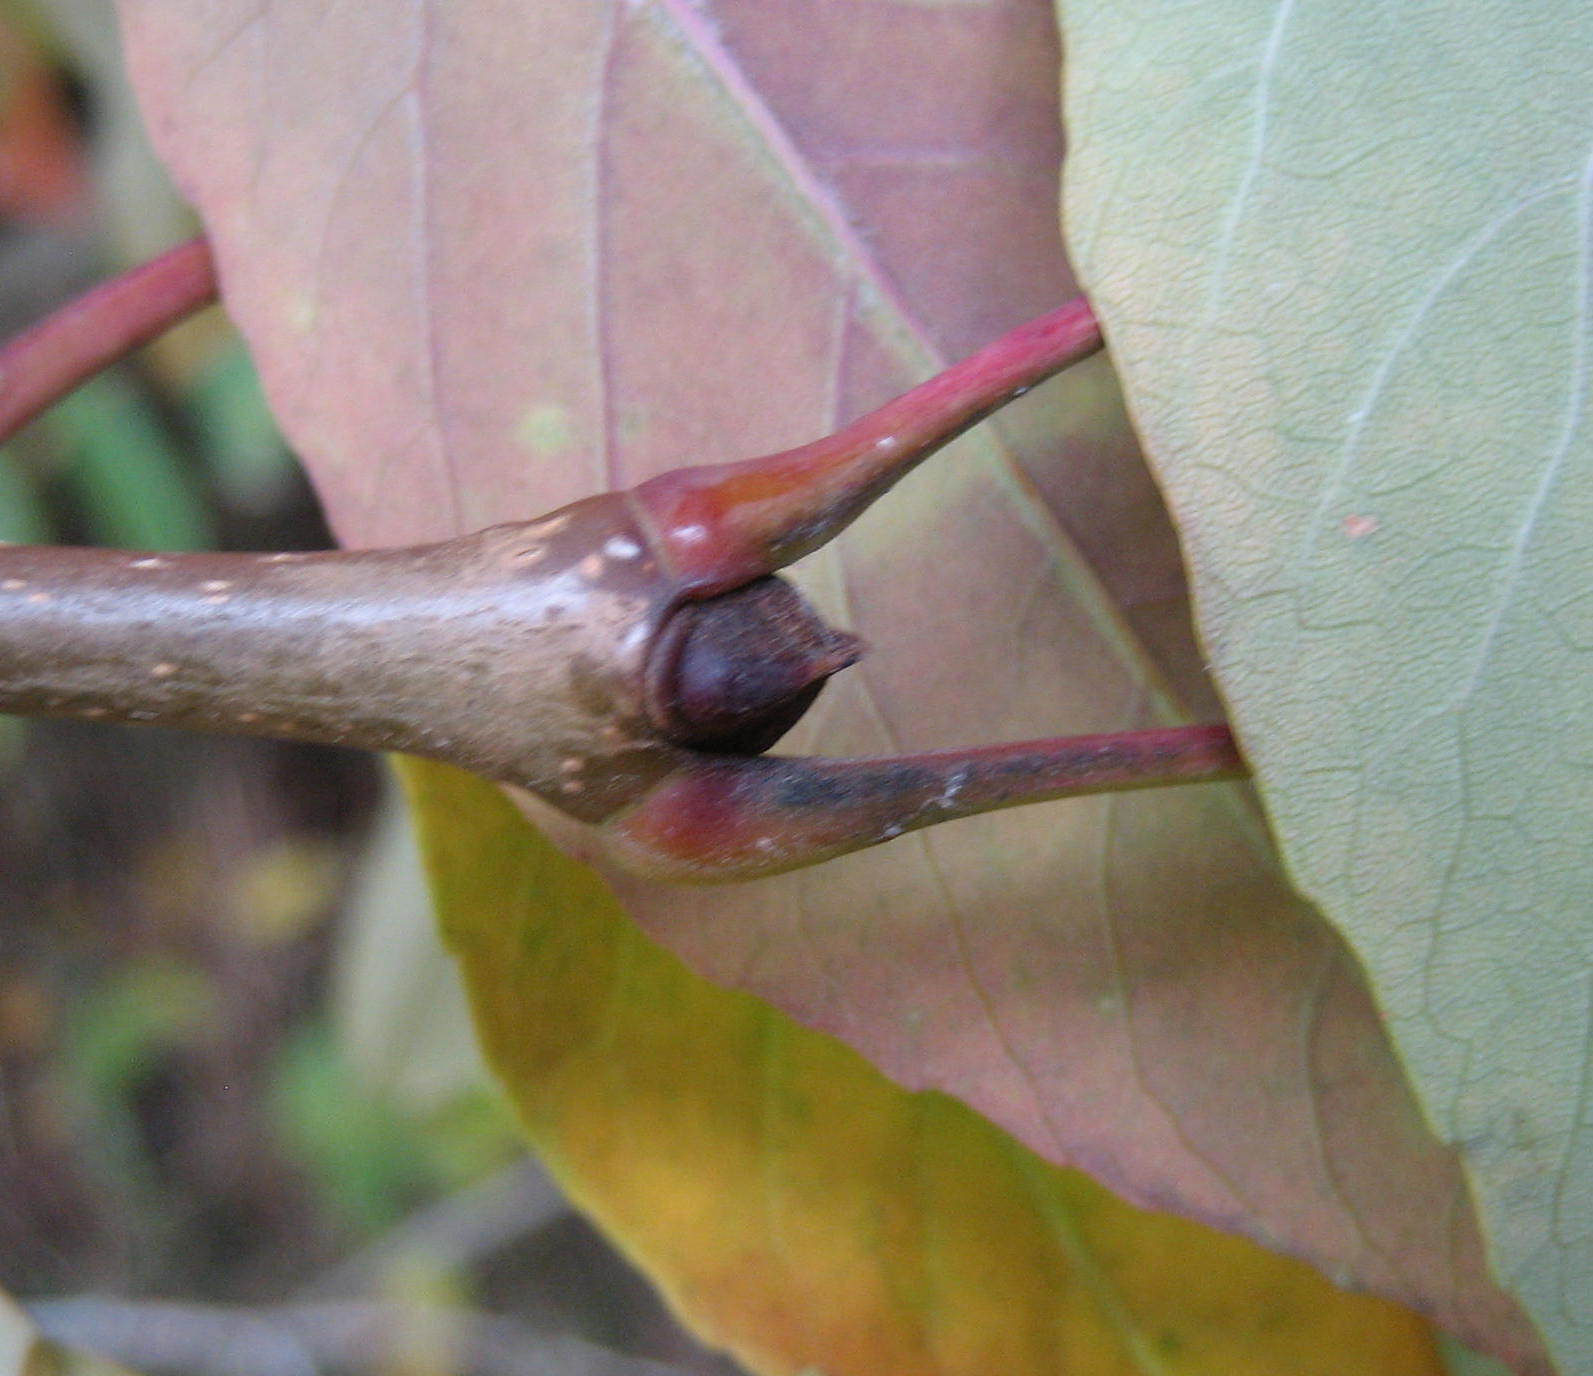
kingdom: Plantae
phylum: Tracheophyta
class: Magnoliopsida
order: Lamiales
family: Oleaceae
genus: Fraxinus
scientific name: Fraxinus americana
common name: White ash
